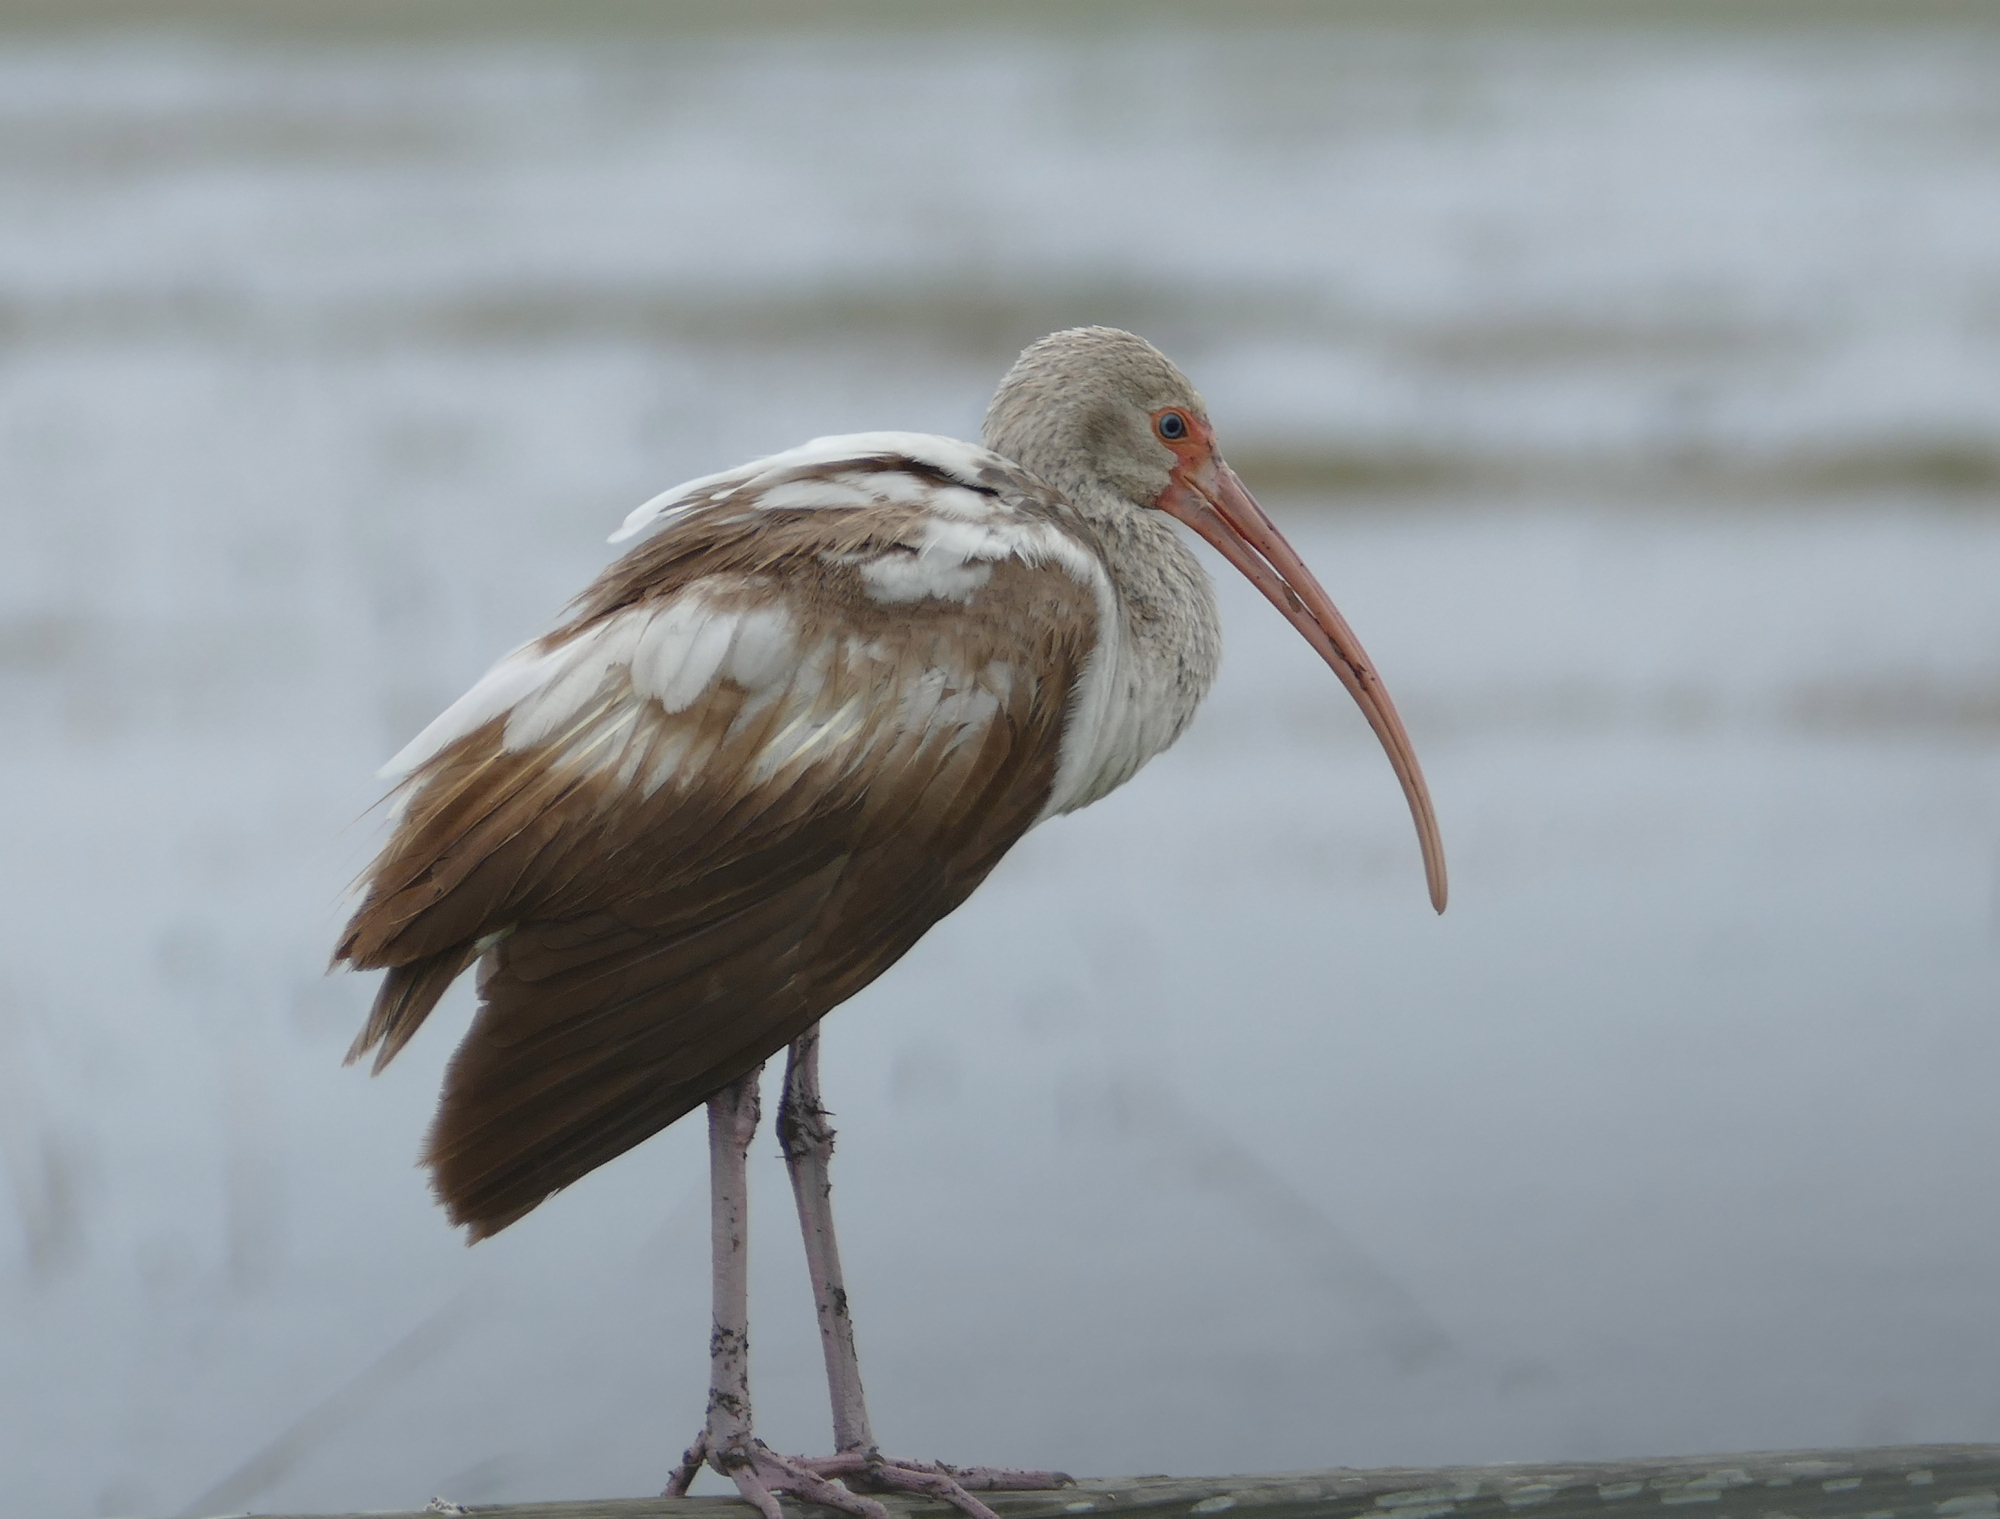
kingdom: Animalia
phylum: Chordata
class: Aves
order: Pelecaniformes
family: Threskiornithidae
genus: Eudocimus
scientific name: Eudocimus albus
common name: White ibis
